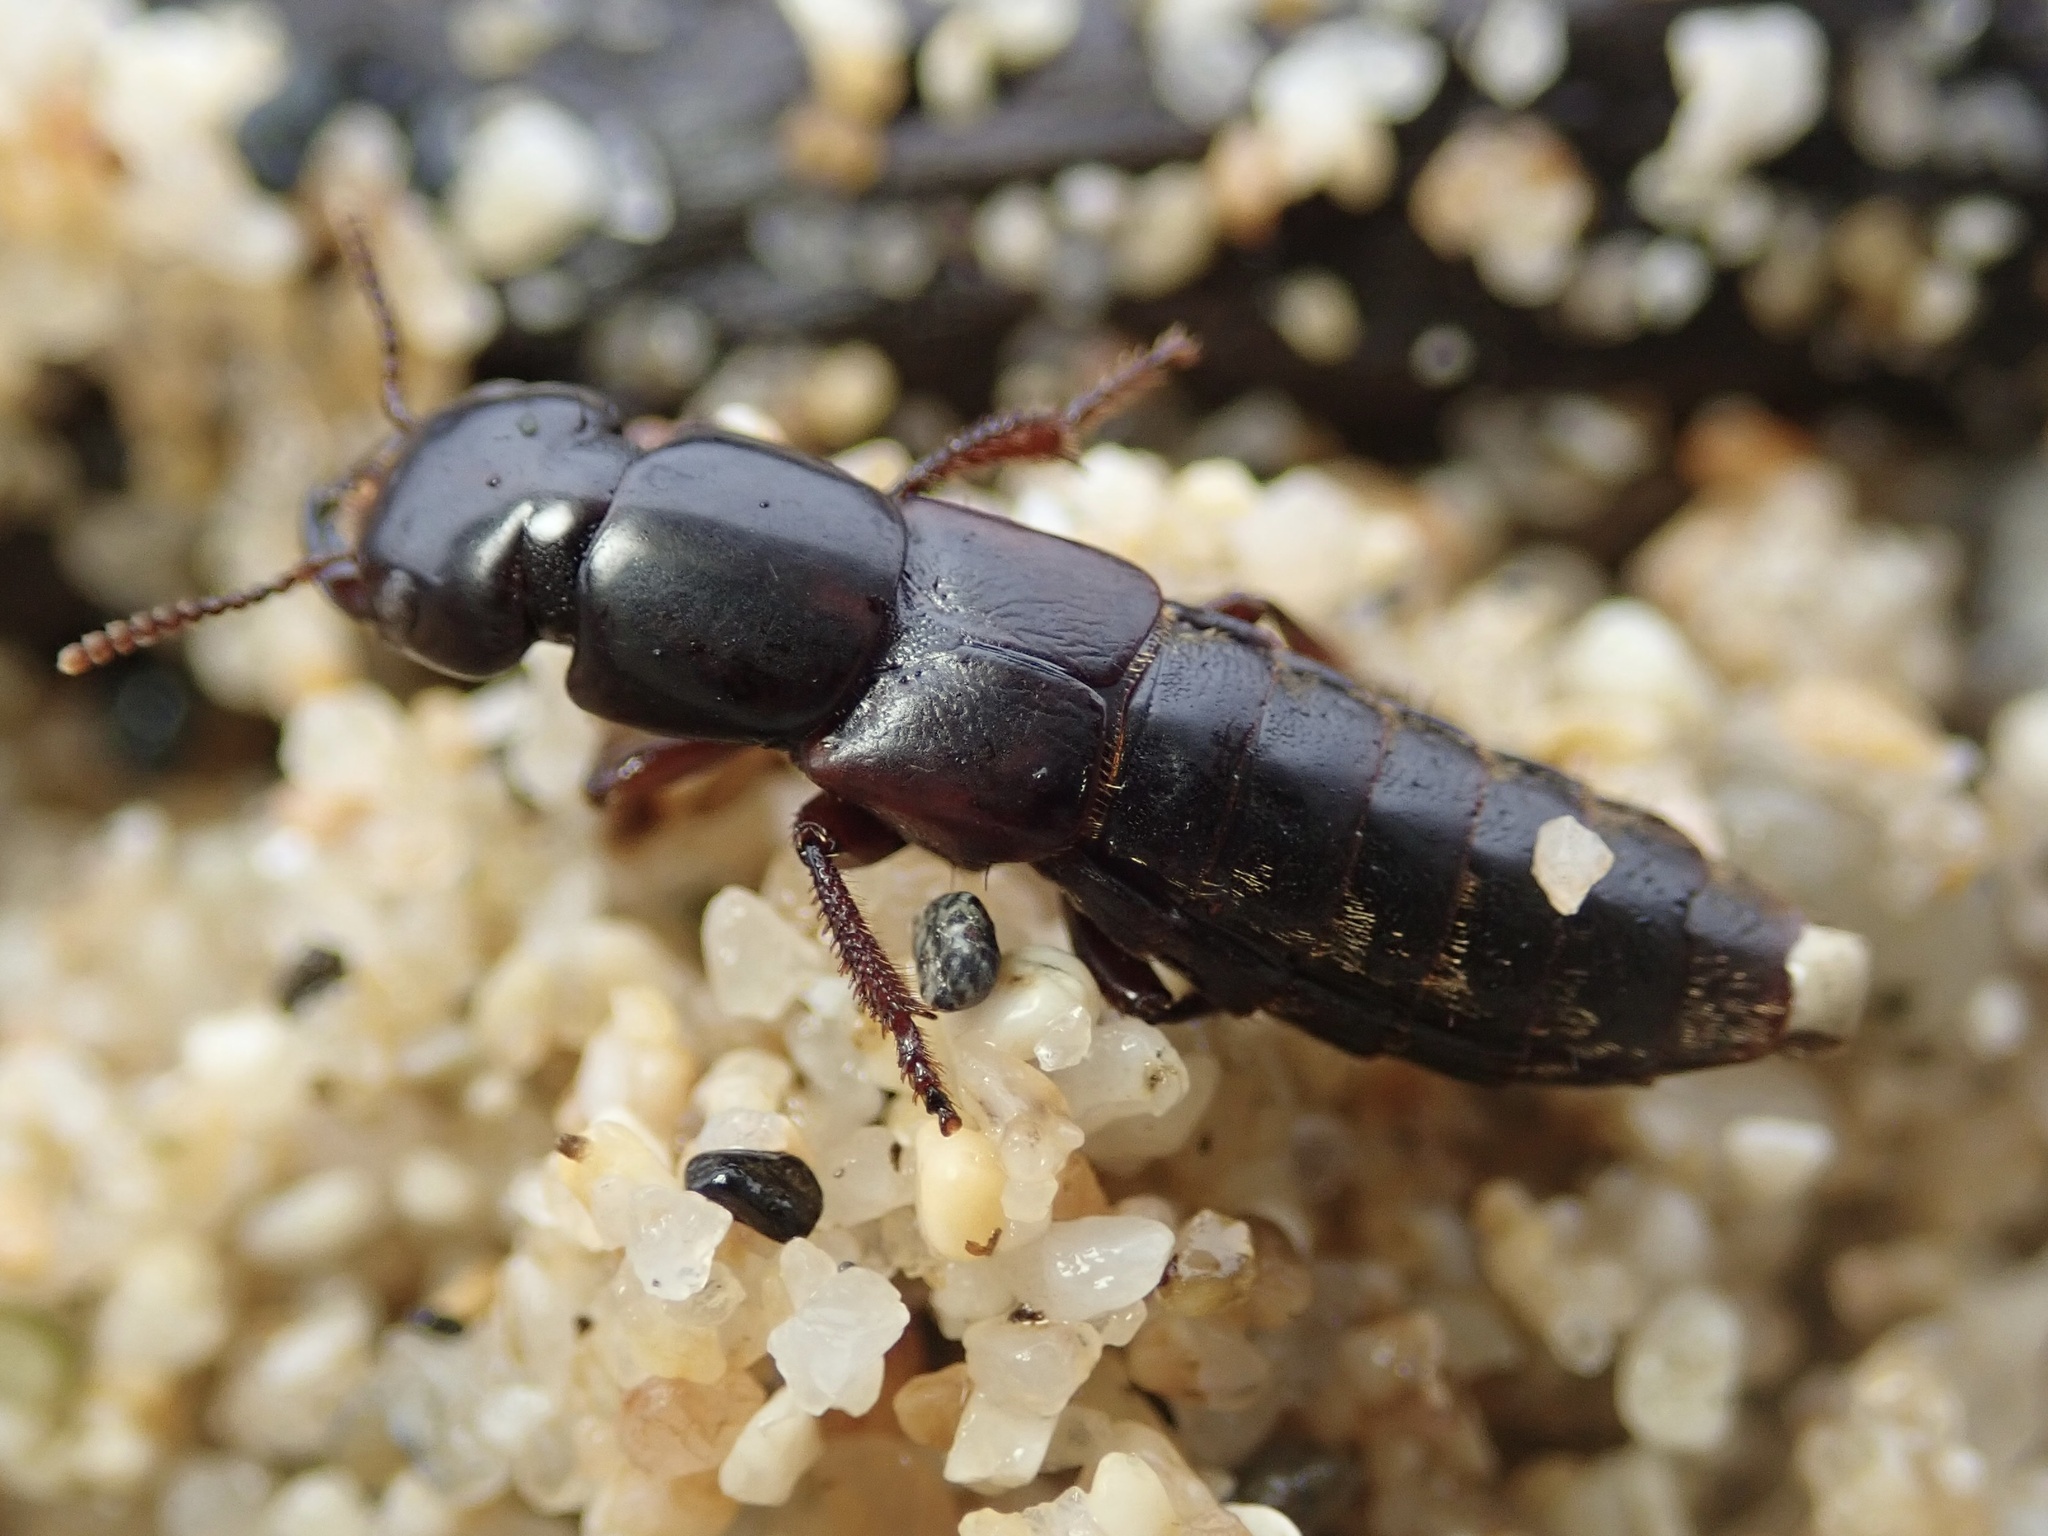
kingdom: Animalia
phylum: Arthropoda
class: Insecta
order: Coleoptera
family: Staphylinidae
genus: Hadrotes
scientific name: Hadrotes crassus
